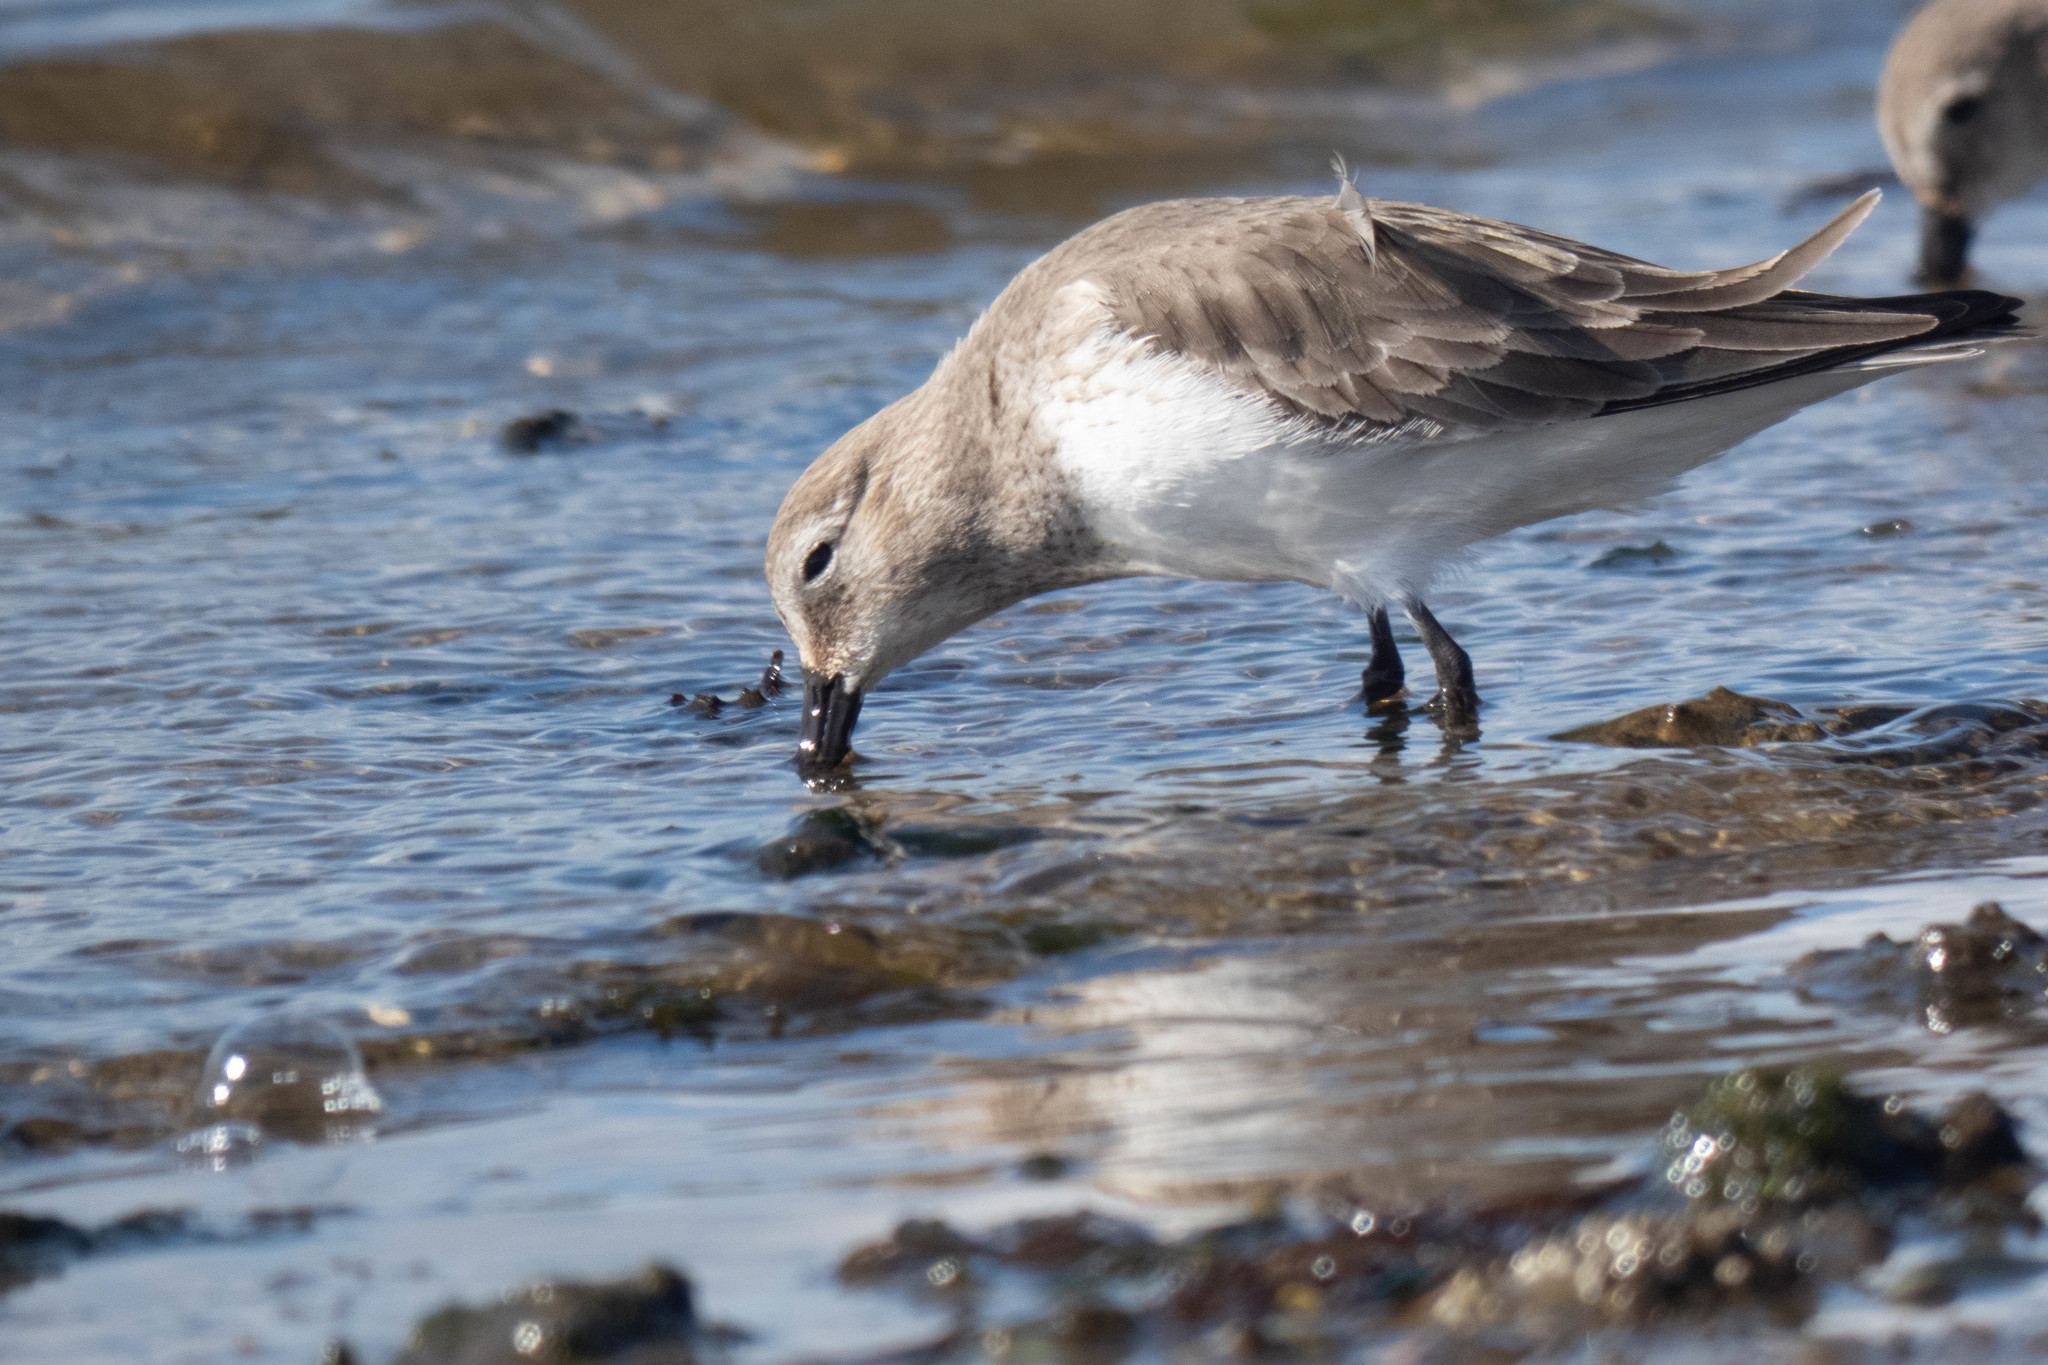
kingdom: Animalia
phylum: Chordata
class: Aves
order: Charadriiformes
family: Scolopacidae
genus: Calidris
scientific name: Calidris alpina
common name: Dunlin
